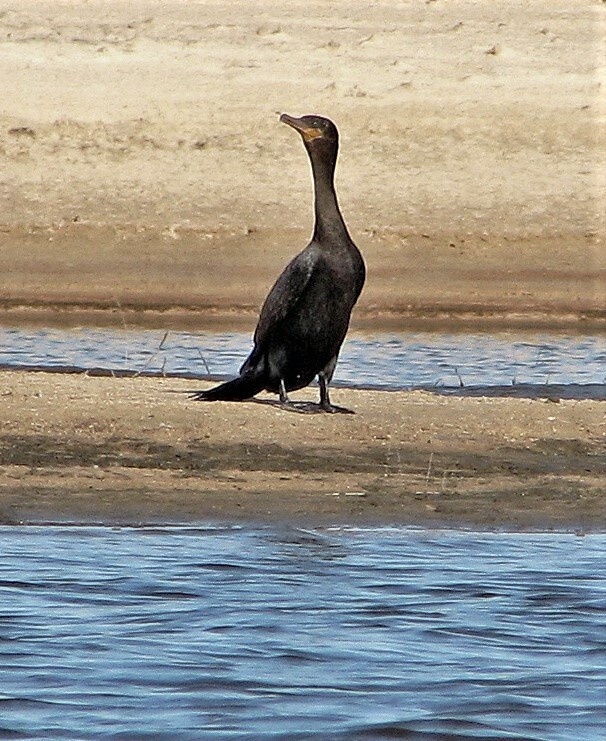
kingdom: Animalia
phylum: Chordata
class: Aves
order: Suliformes
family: Phalacrocoracidae
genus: Phalacrocorax
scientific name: Phalacrocorax brasilianus
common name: Neotropic cormorant
